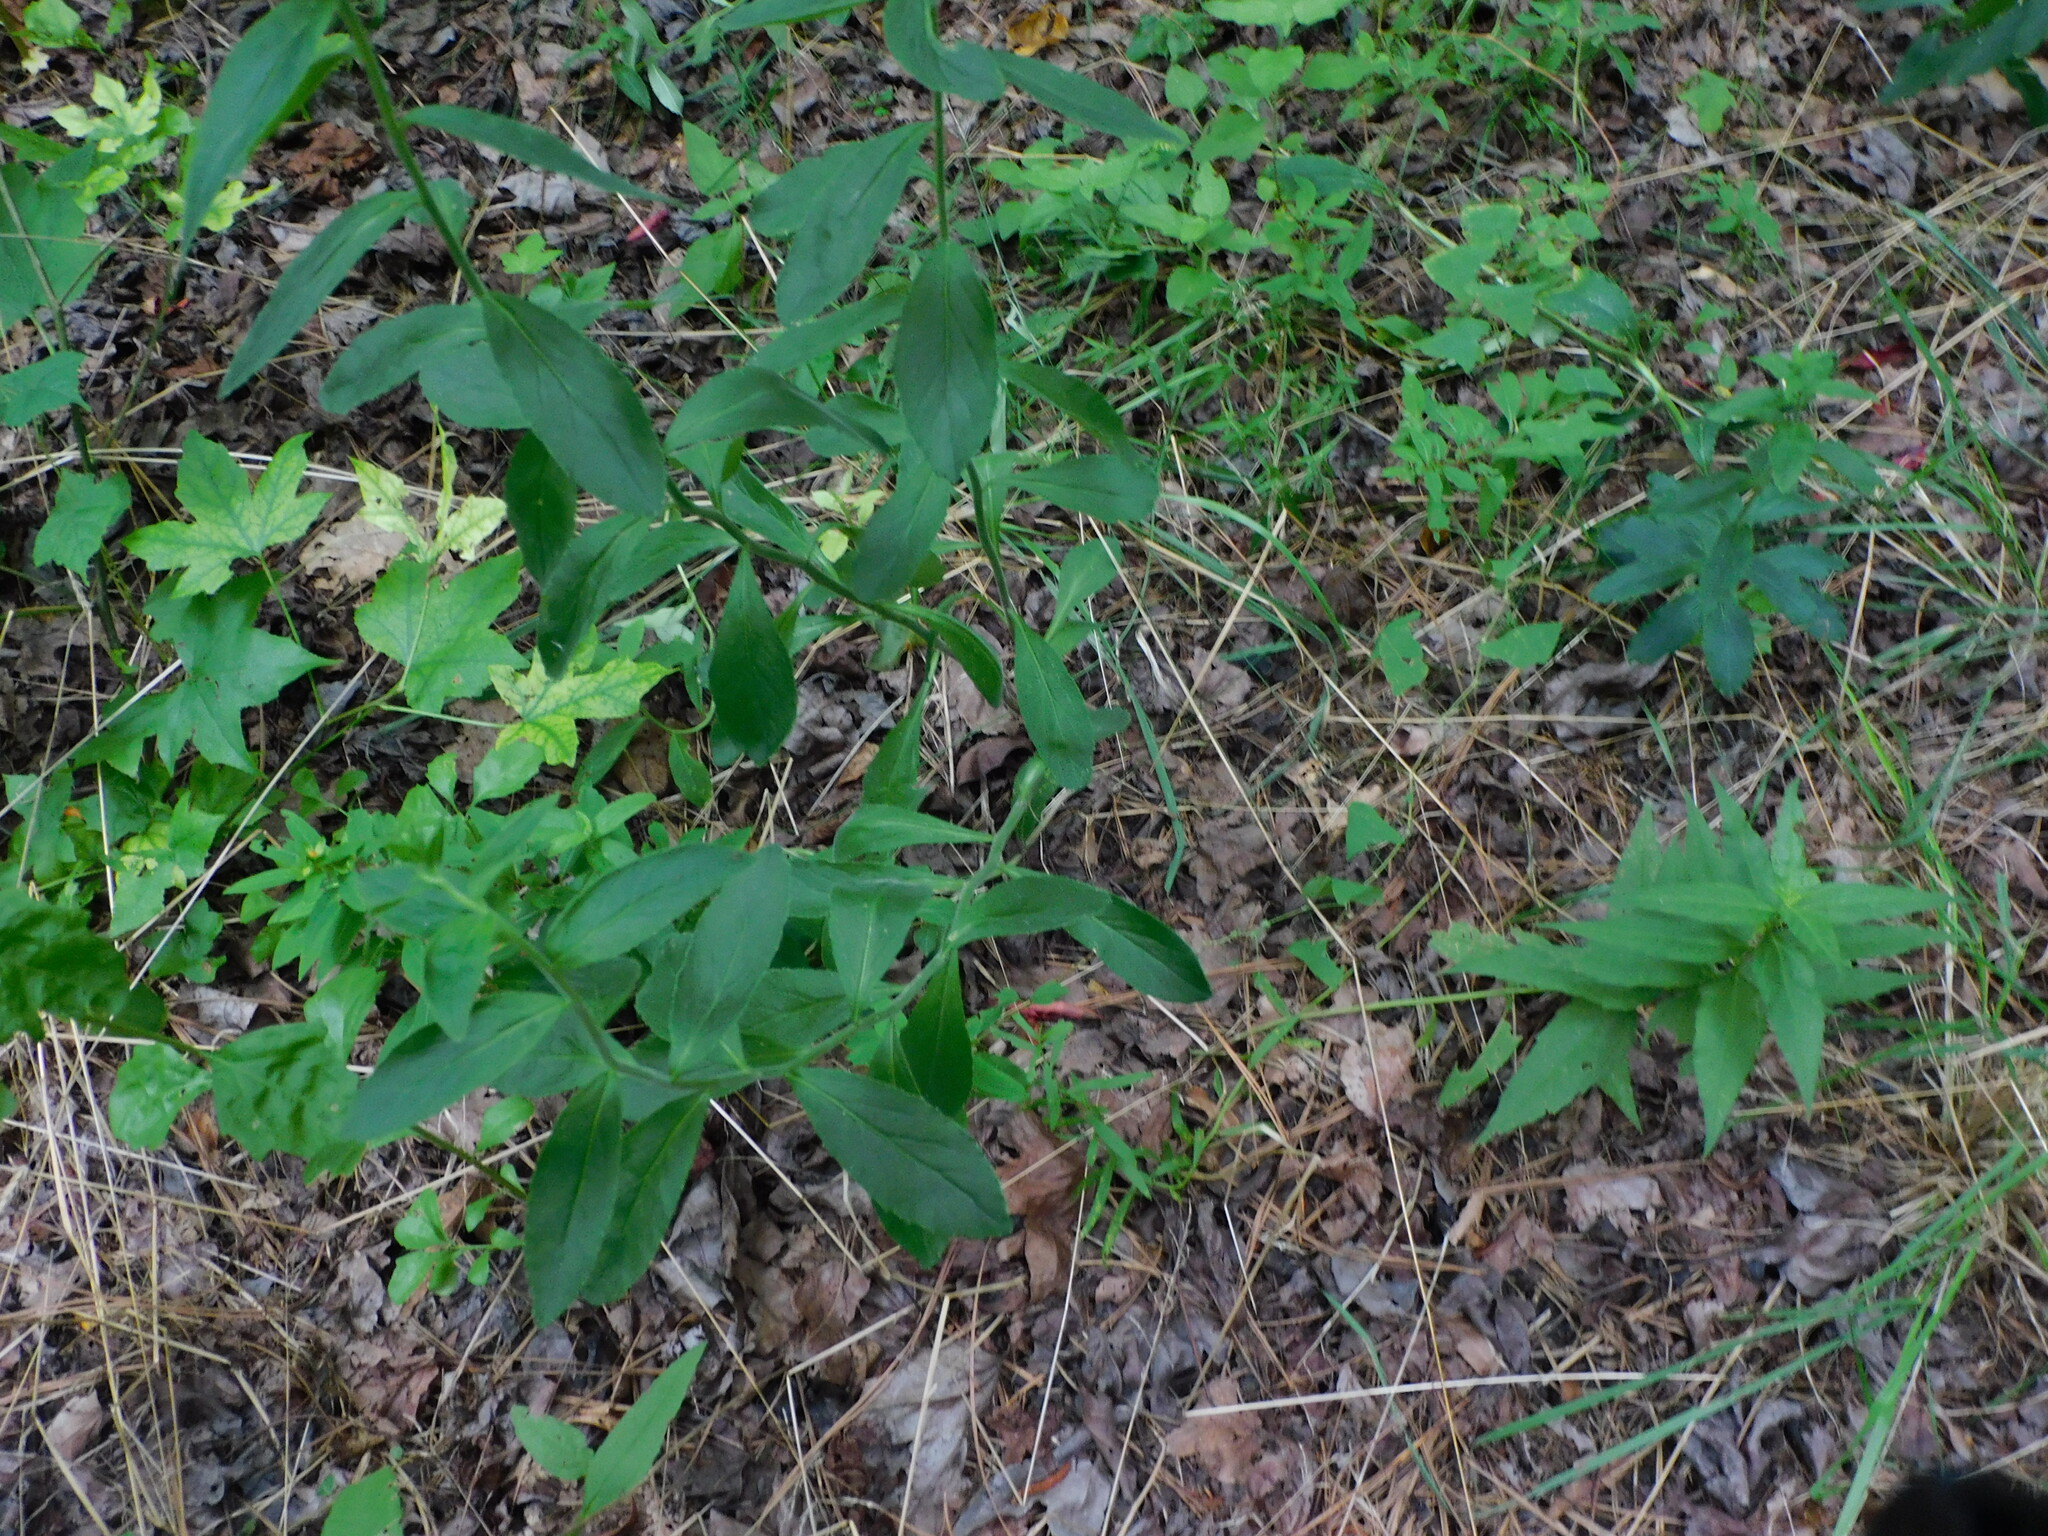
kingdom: Plantae
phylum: Tracheophyta
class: Magnoliopsida
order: Asterales
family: Campanulaceae
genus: Lobelia
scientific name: Lobelia puberula
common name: Purple dewdrop
